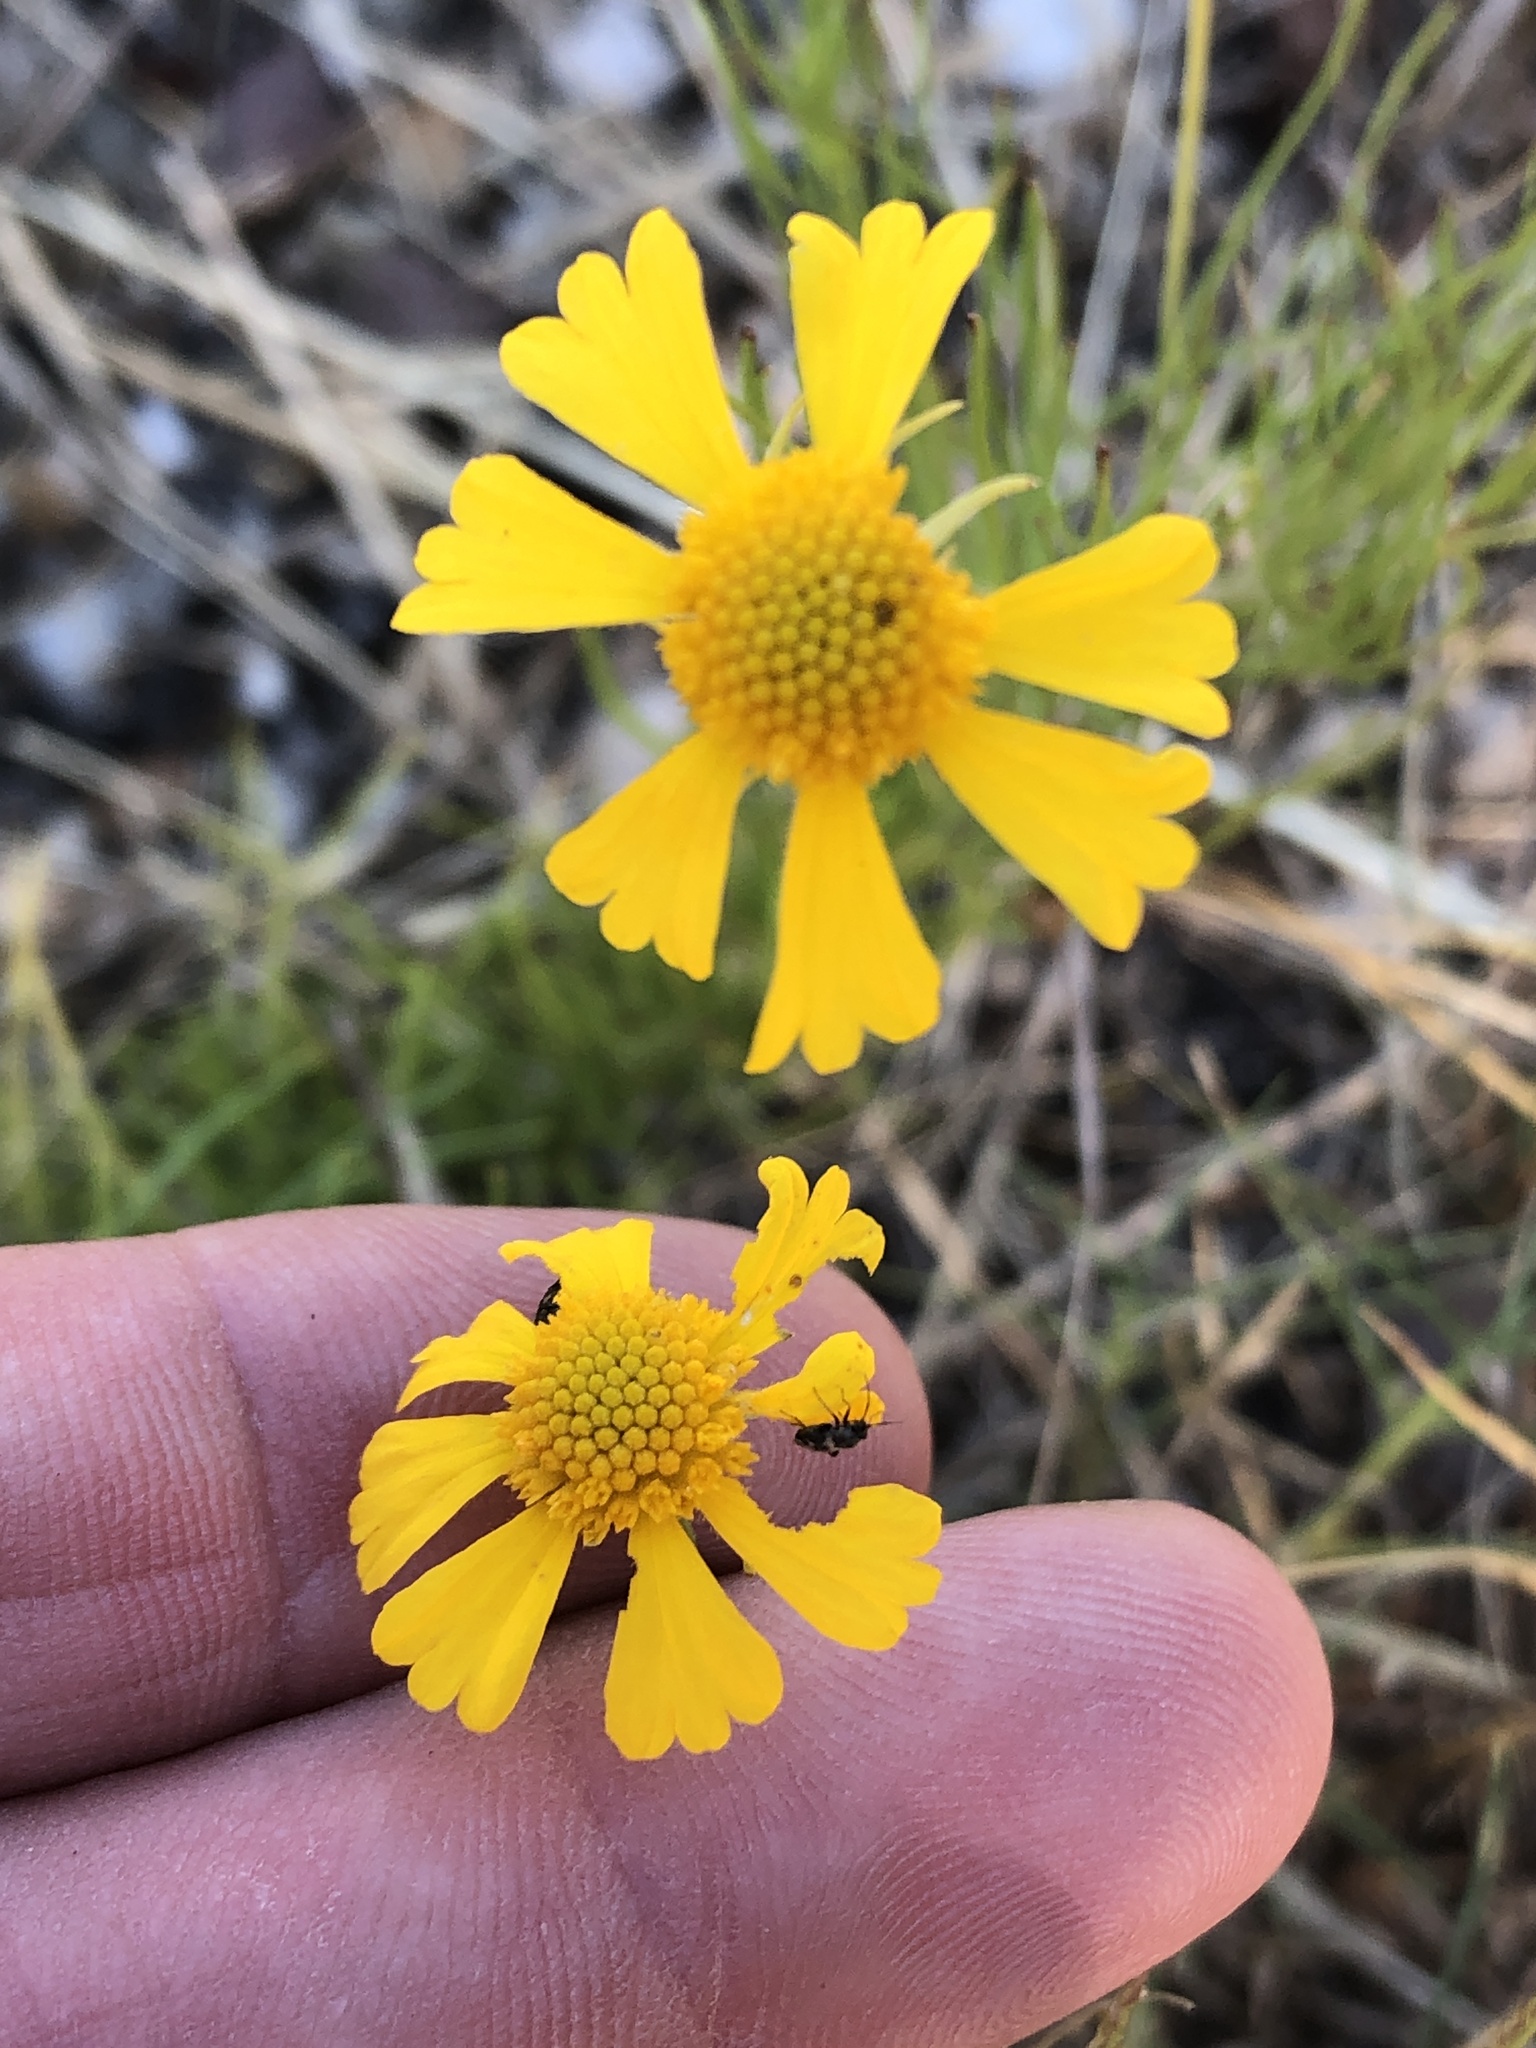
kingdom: Plantae
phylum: Tracheophyta
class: Magnoliopsida
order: Asterales
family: Asteraceae
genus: Helenium
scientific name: Helenium amarum
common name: Bitter sneezeweed
